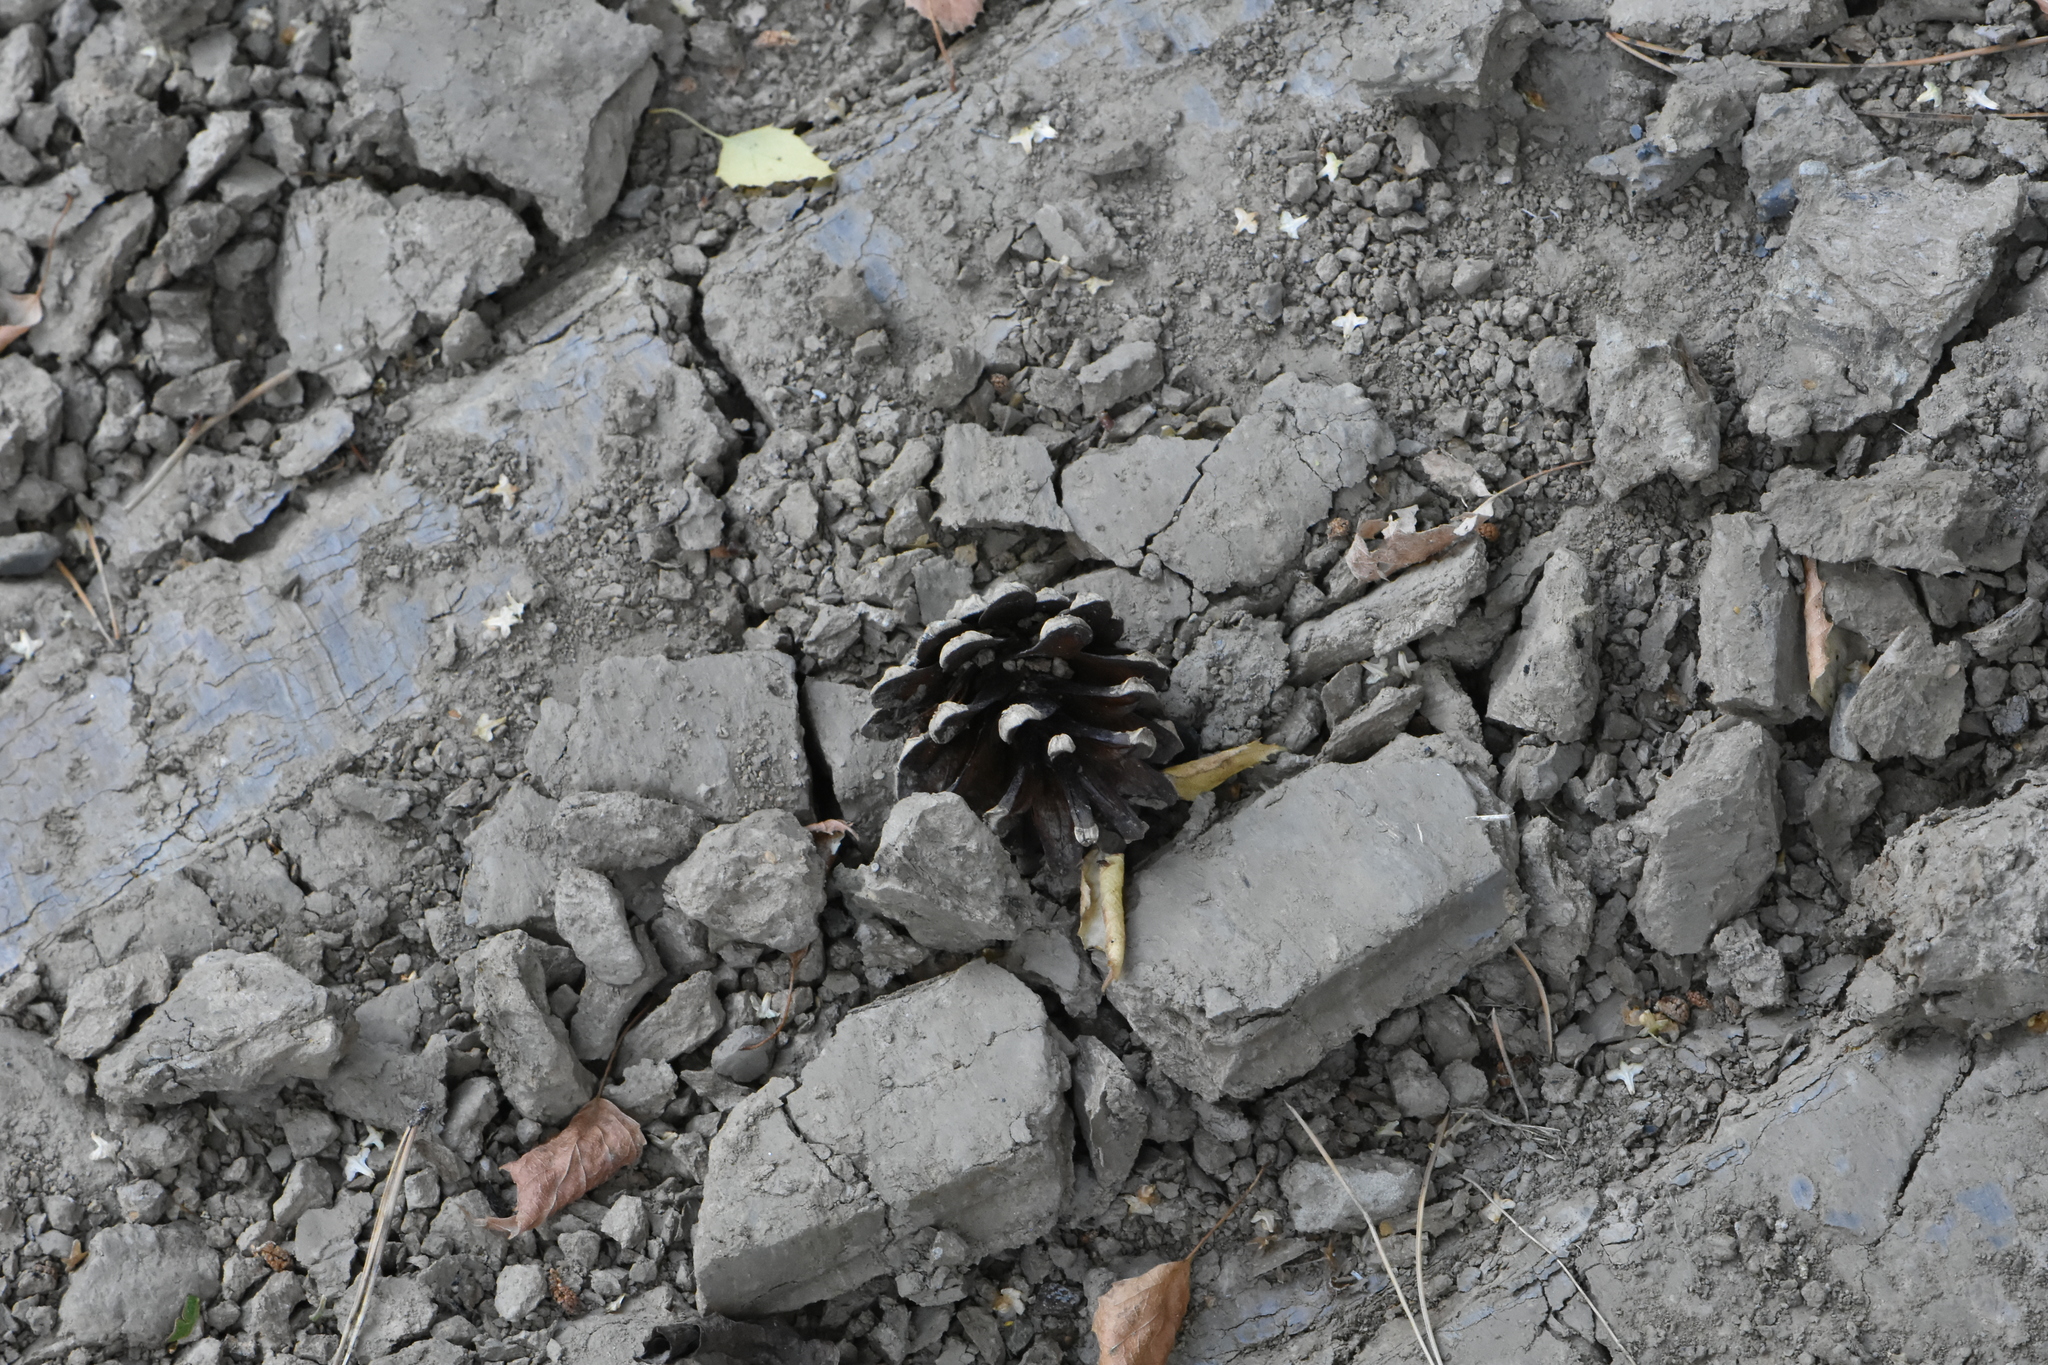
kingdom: Plantae
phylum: Tracheophyta
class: Pinopsida
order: Pinales
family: Pinaceae
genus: Pinus
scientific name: Pinus sylvestris
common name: Scots pine
